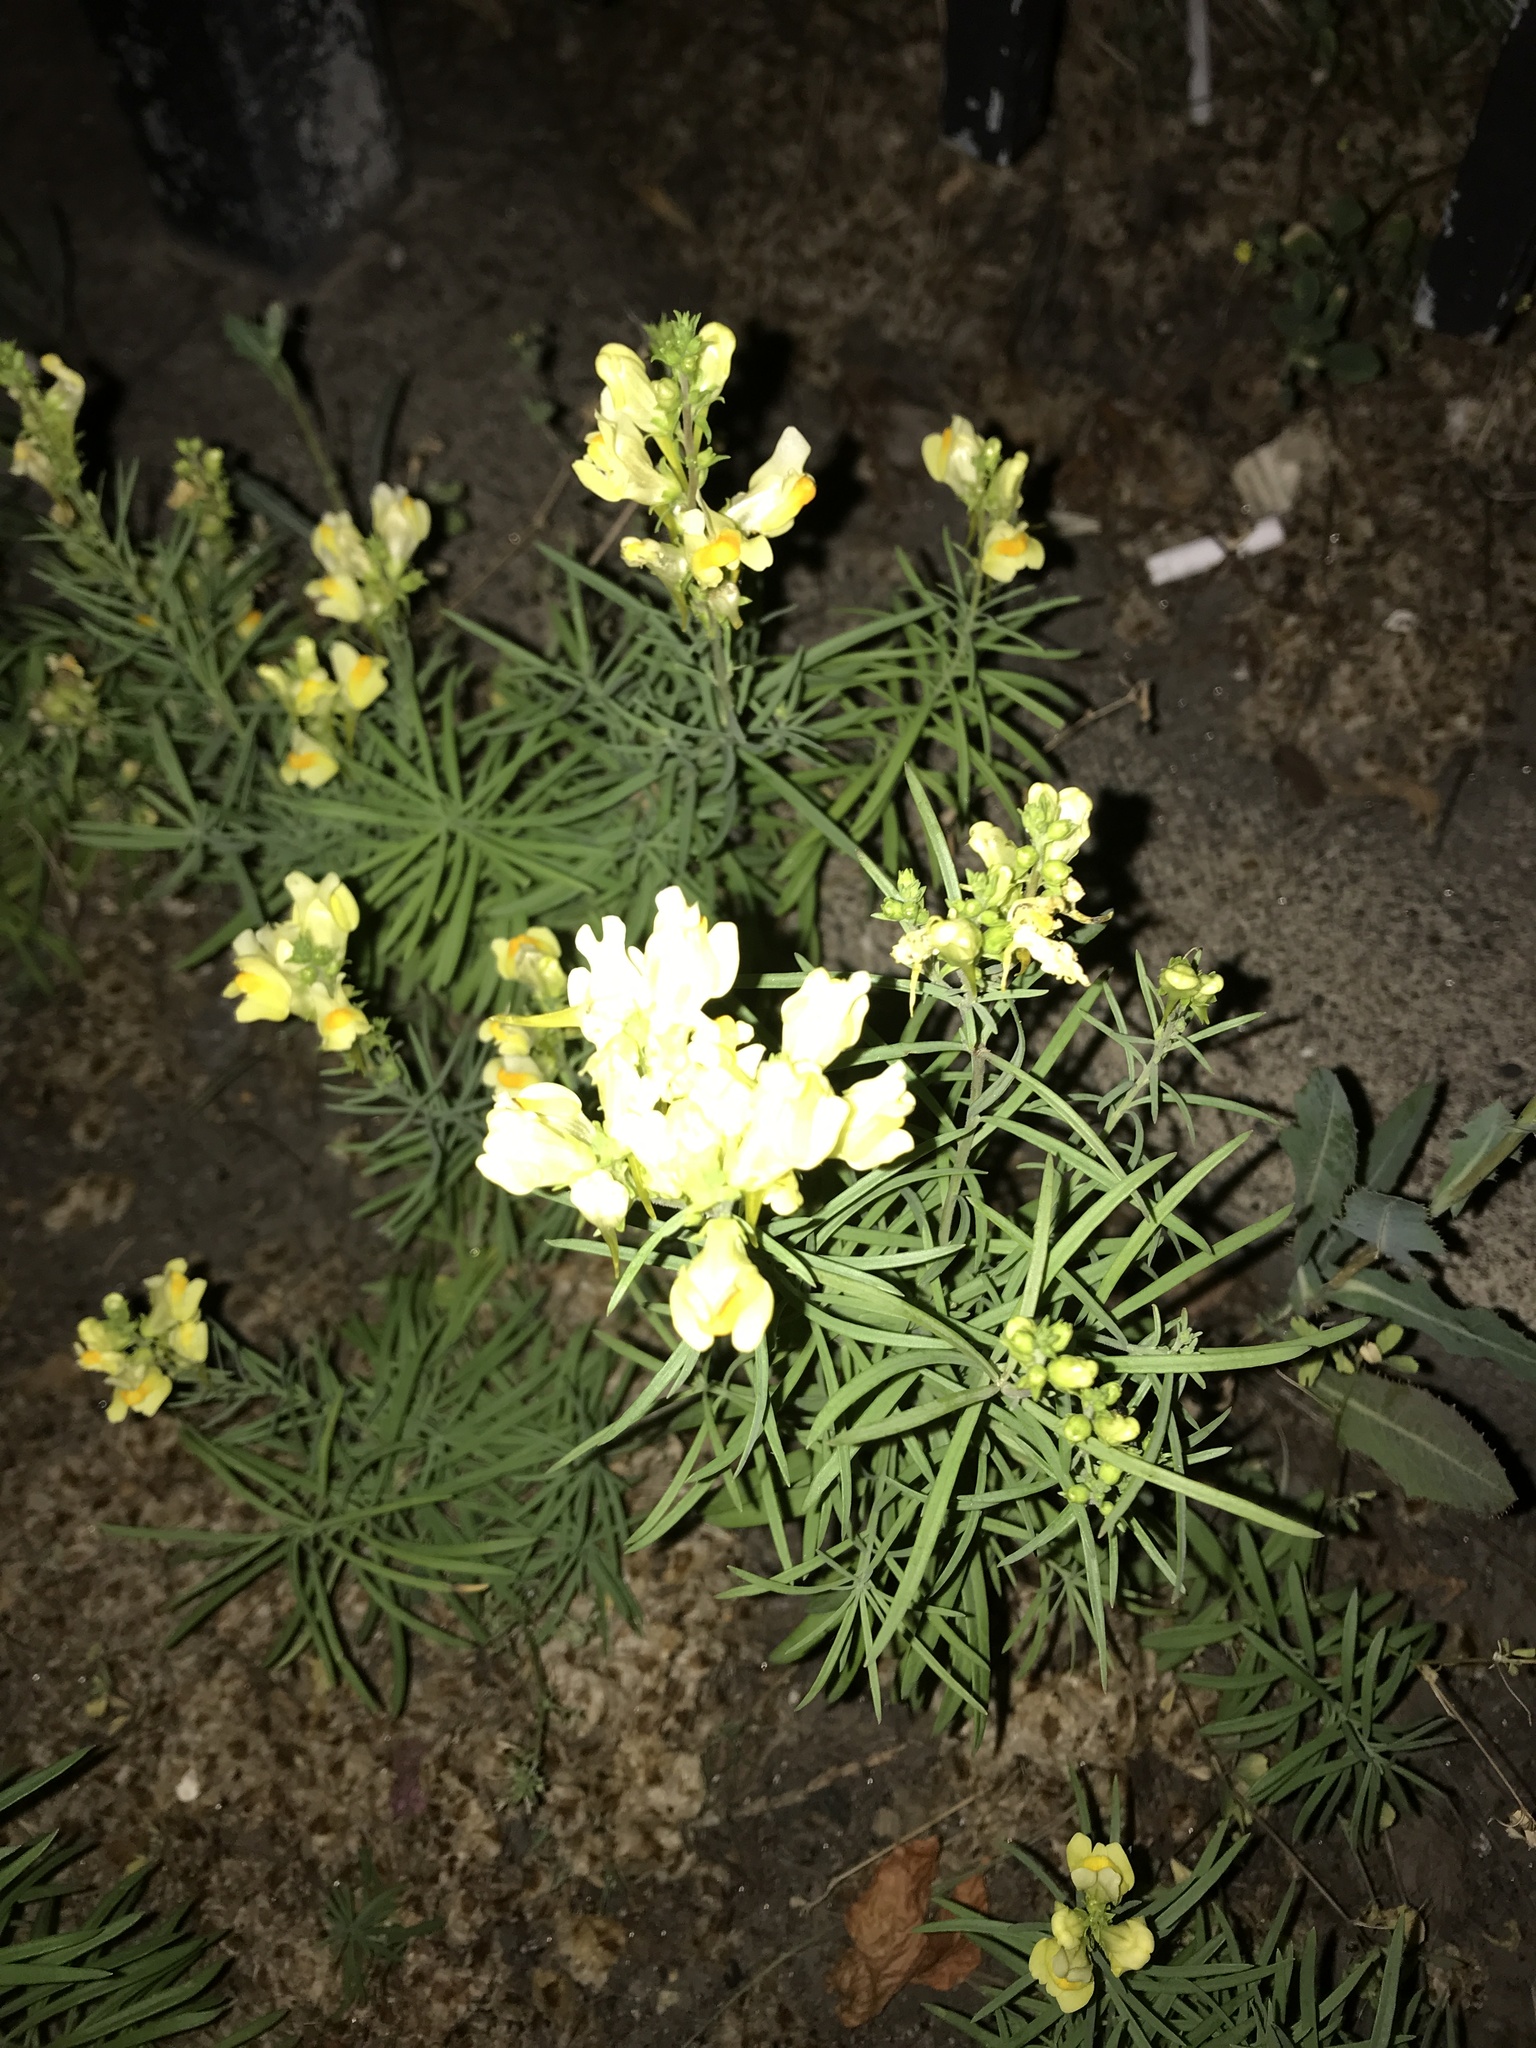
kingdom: Plantae
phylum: Tracheophyta
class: Magnoliopsida
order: Lamiales
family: Plantaginaceae
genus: Linaria
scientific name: Linaria vulgaris
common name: Butter and eggs
